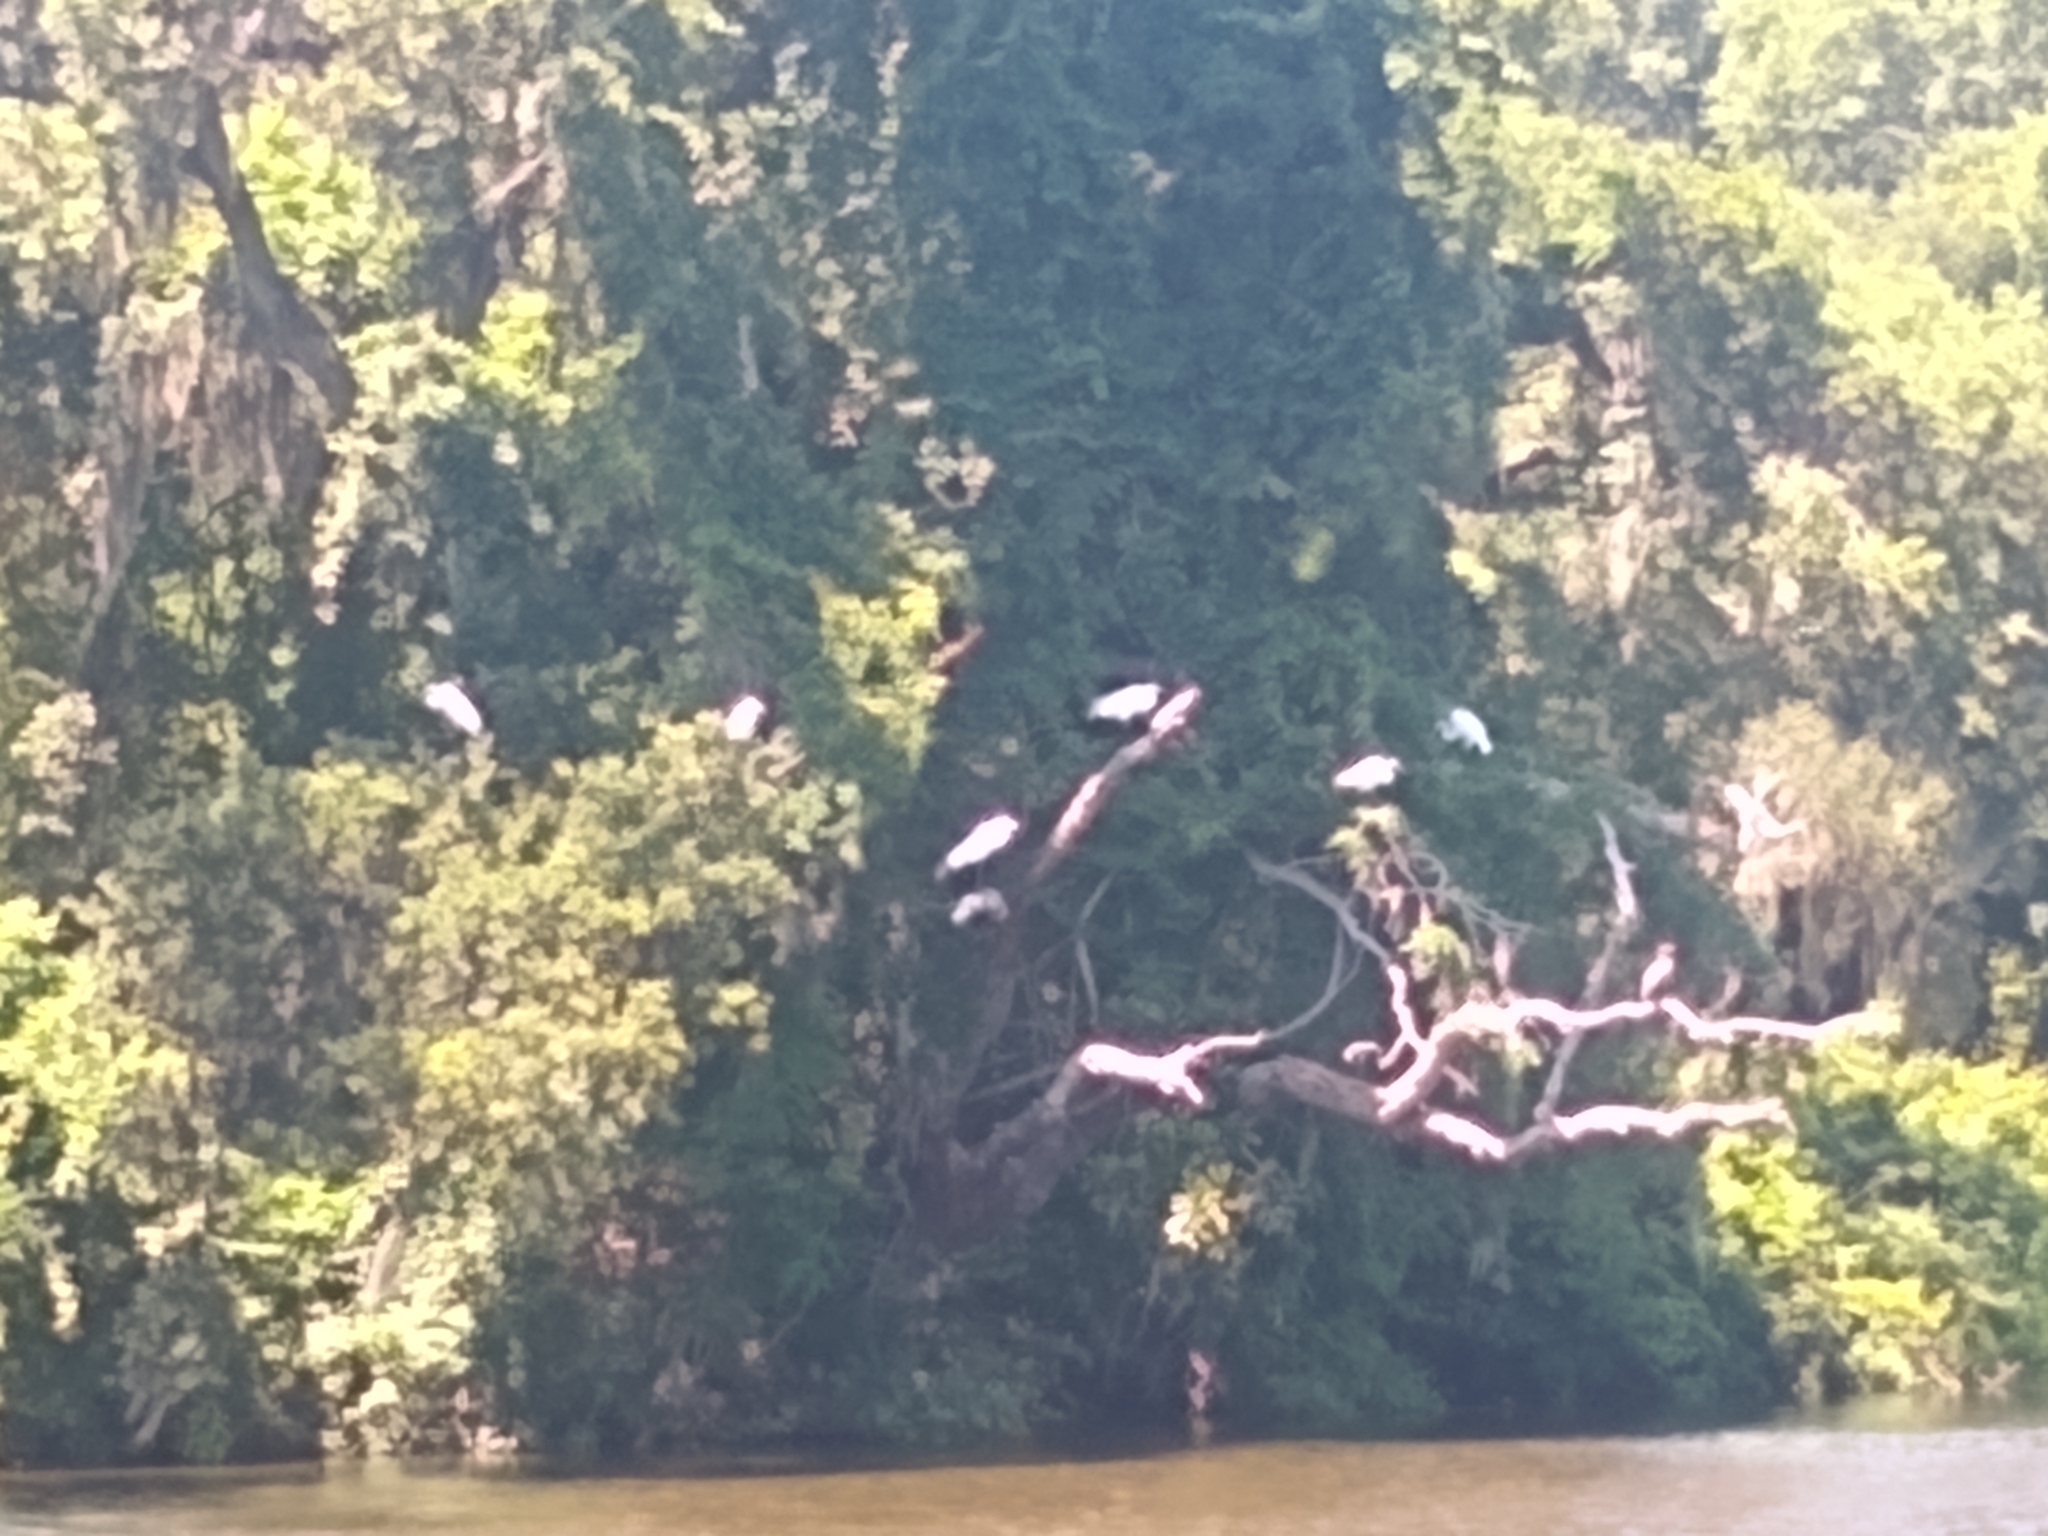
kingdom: Animalia
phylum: Chordata
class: Aves
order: Pelecaniformes
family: Ardeidae
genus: Ardea
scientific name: Ardea alba
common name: Great egret
